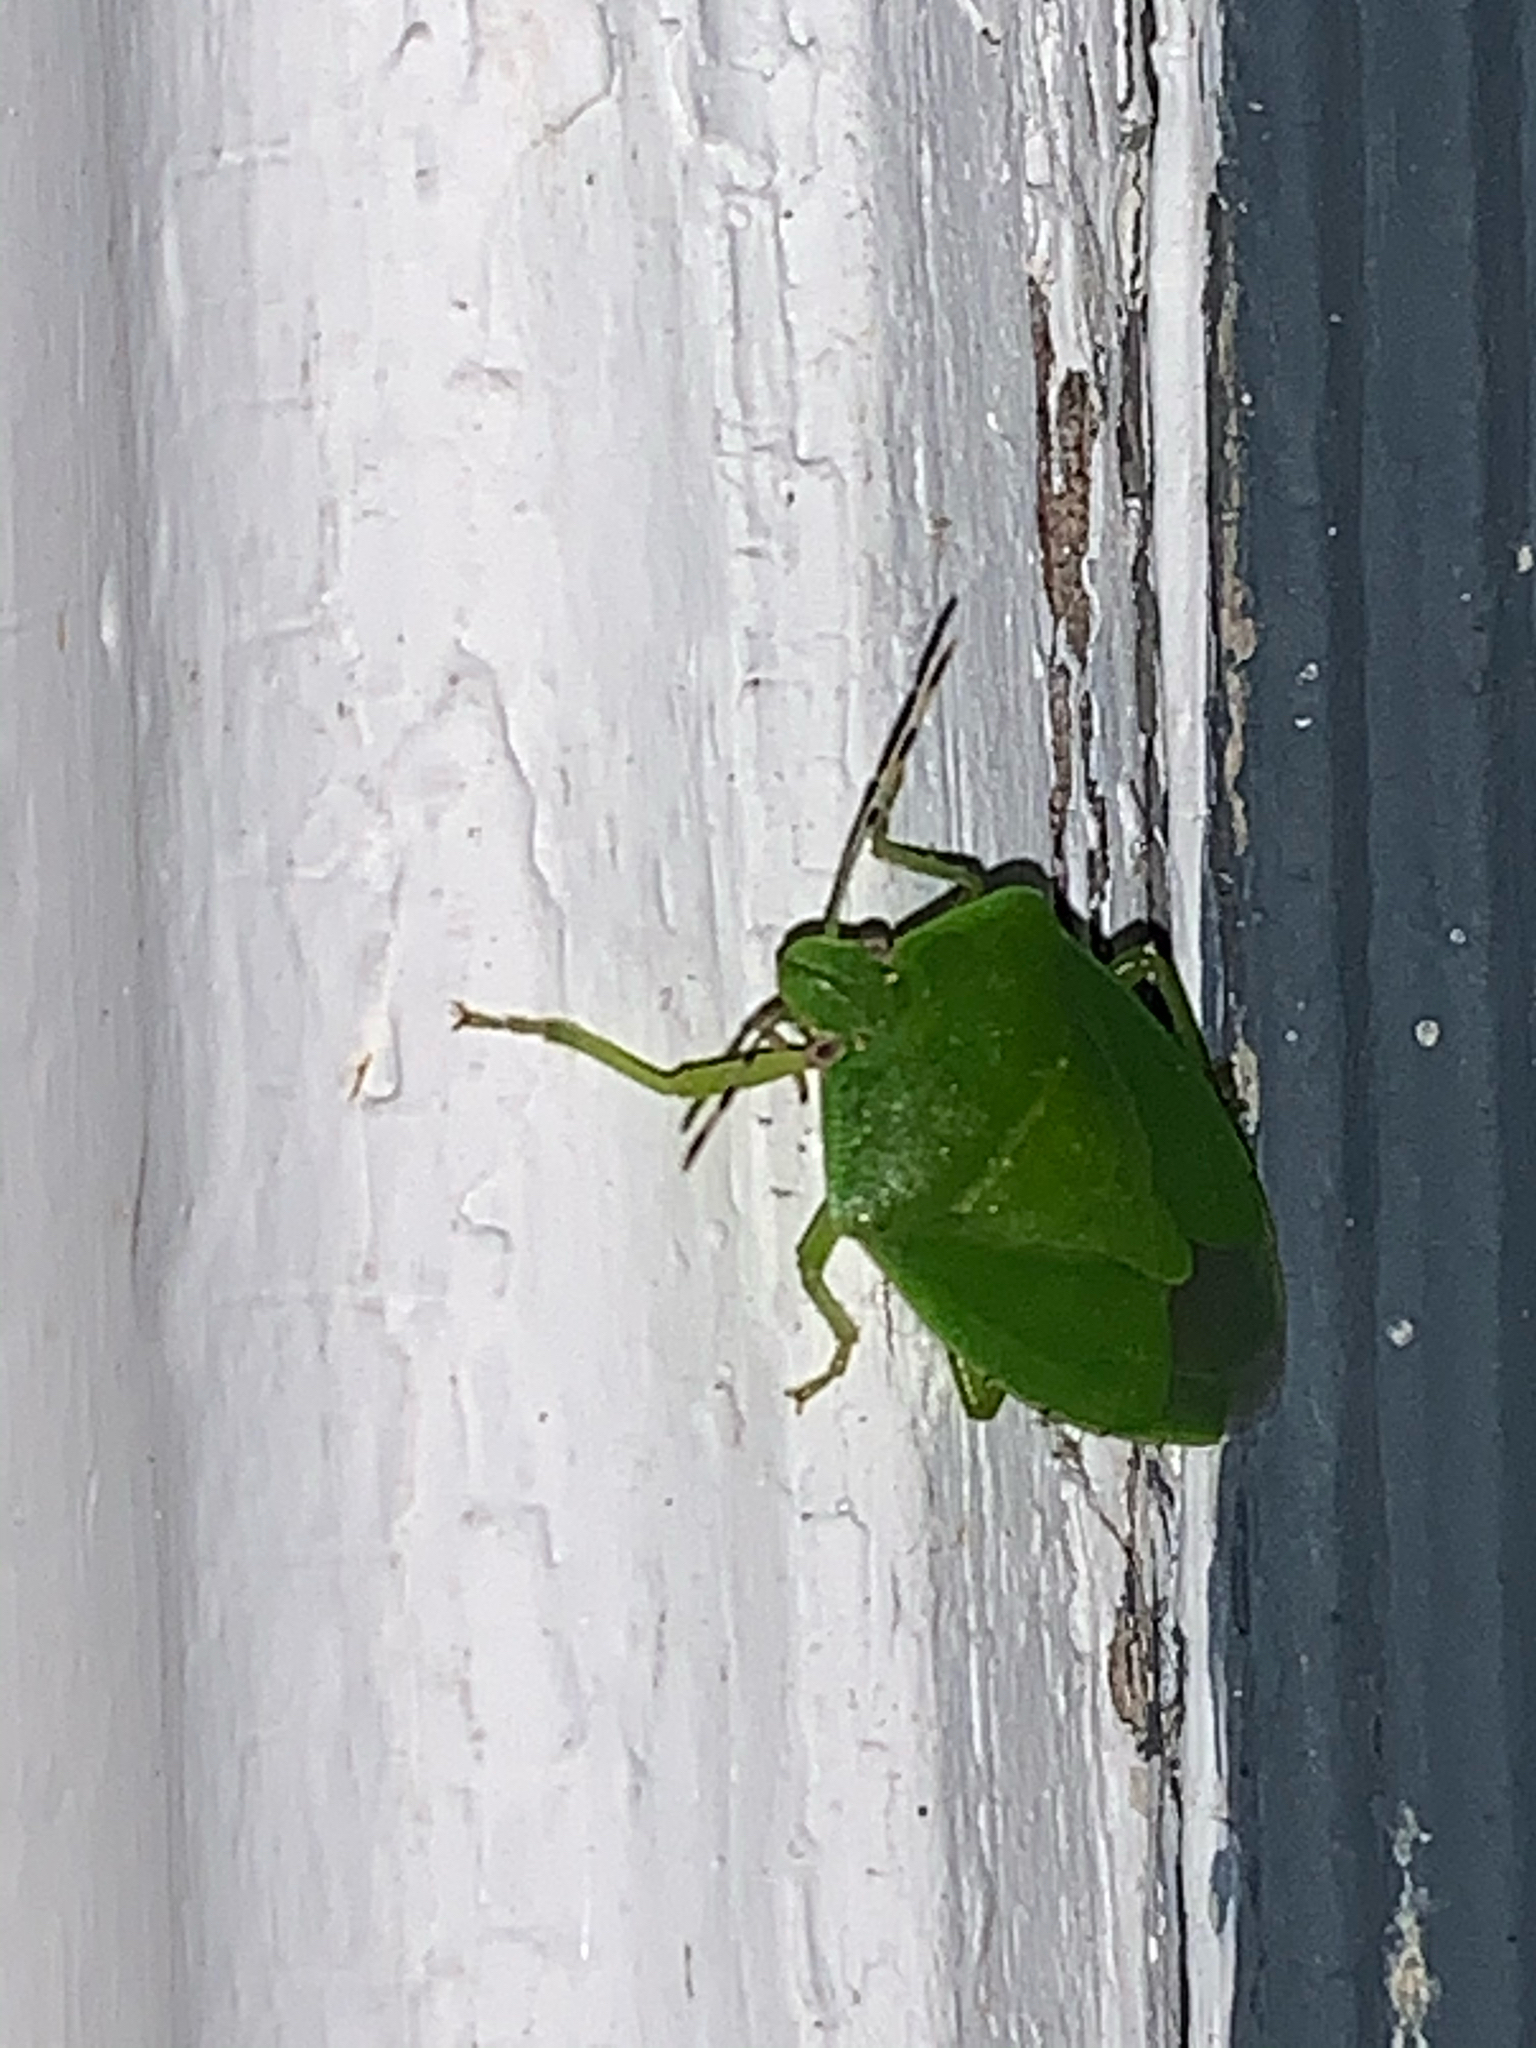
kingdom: Animalia
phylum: Arthropoda
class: Insecta
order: Hemiptera
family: Pentatomidae
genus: Chinavia
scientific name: Chinavia hilaris
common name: Green stink bug
